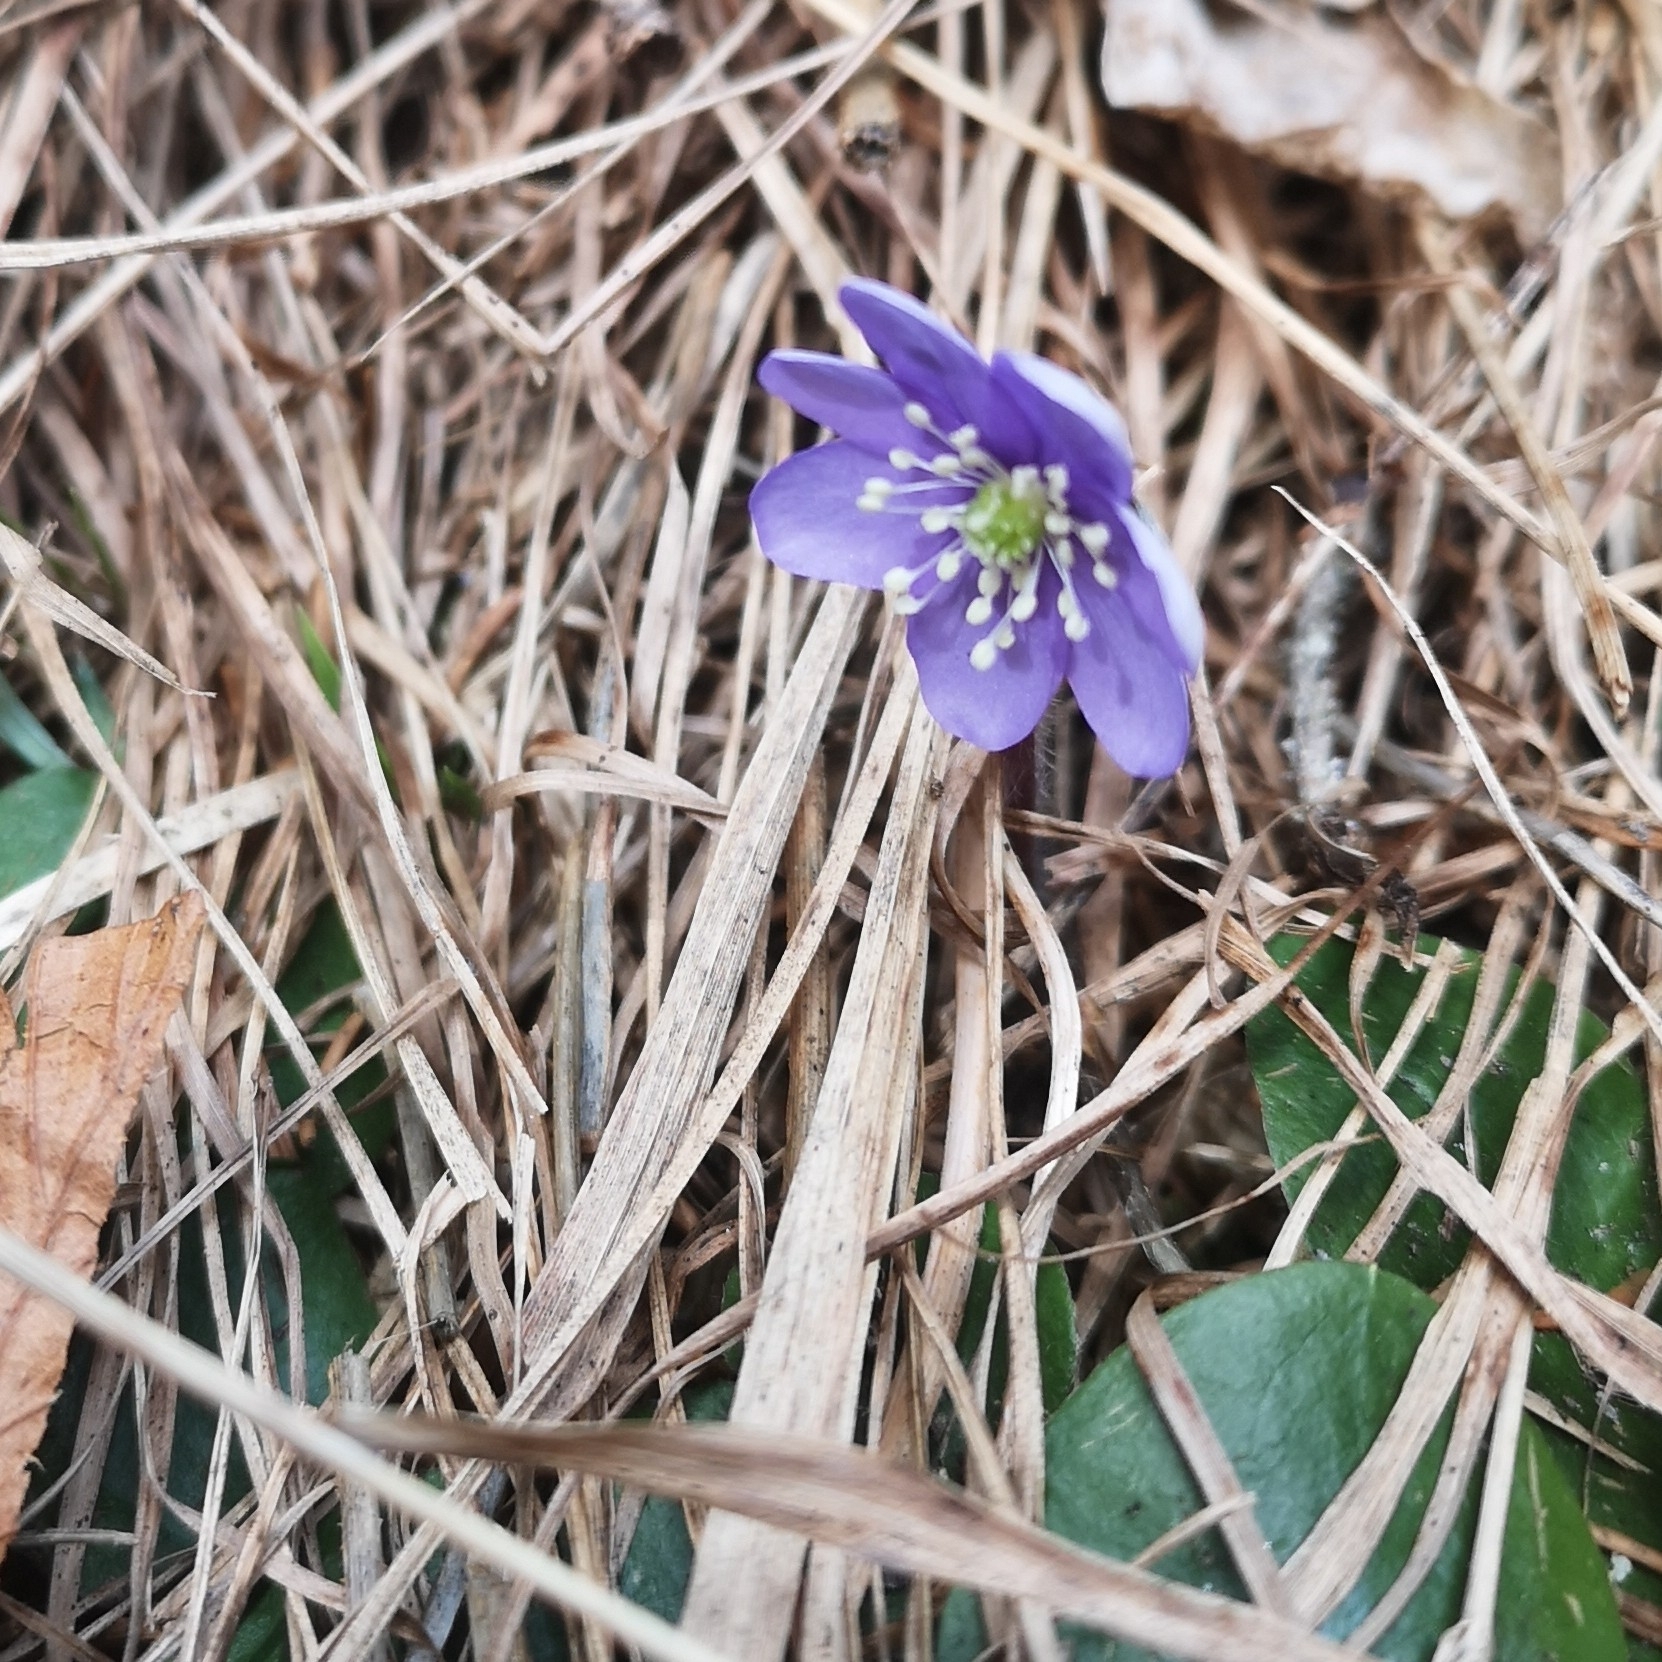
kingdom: Plantae
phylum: Tracheophyta
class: Magnoliopsida
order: Ranunculales
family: Ranunculaceae
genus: Hepatica
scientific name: Hepatica nobilis
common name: Liverleaf
